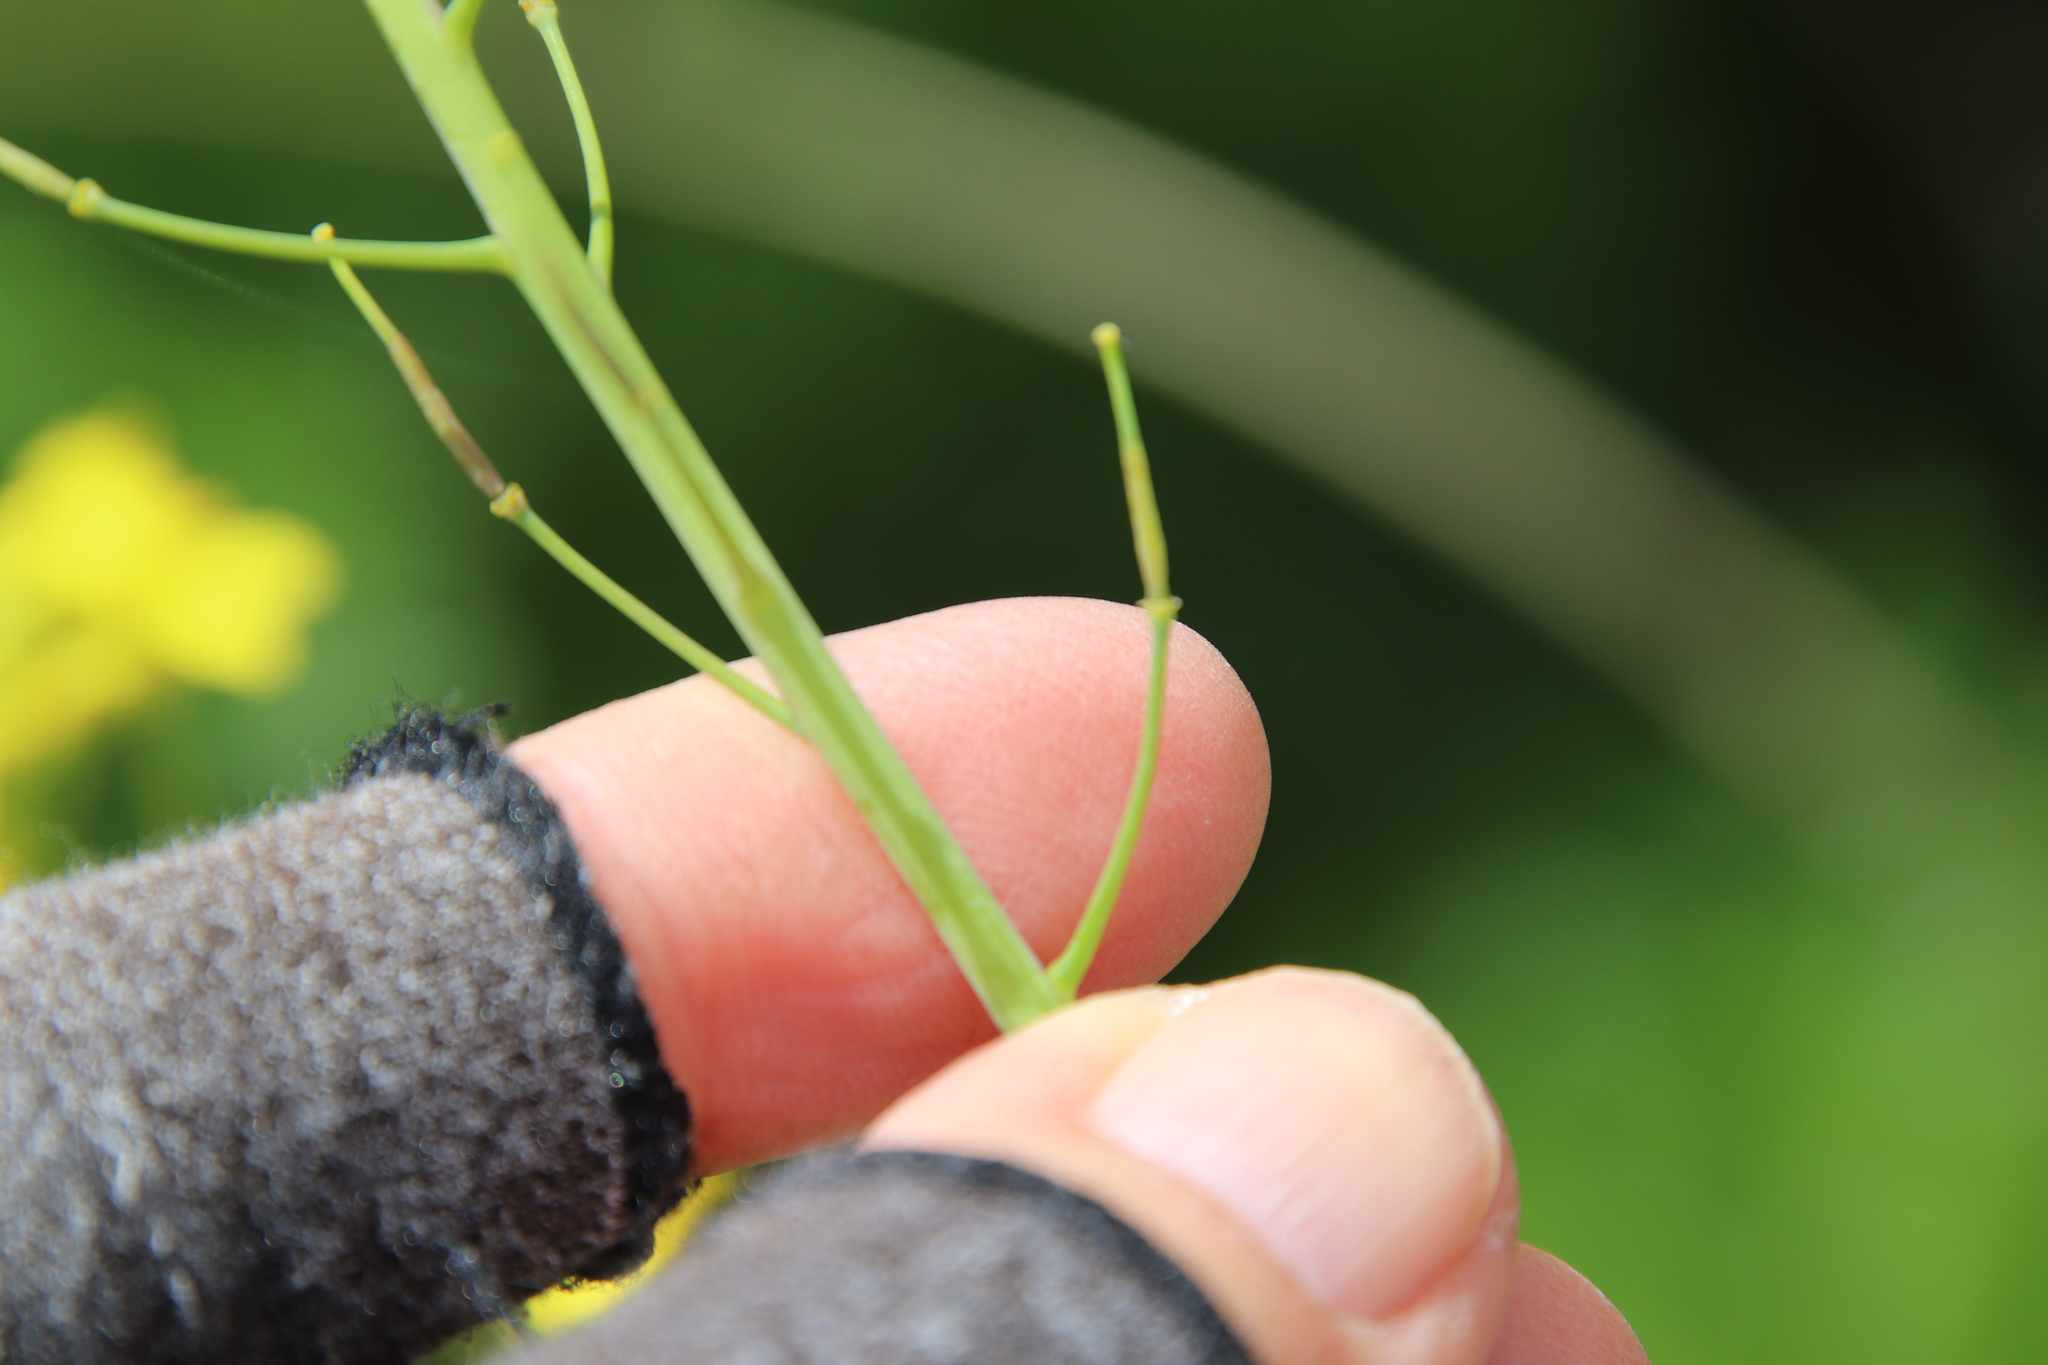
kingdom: Plantae
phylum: Tracheophyta
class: Magnoliopsida
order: Brassicales
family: Brassicaceae
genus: Brassica
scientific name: Brassica rapa
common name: Field mustard
